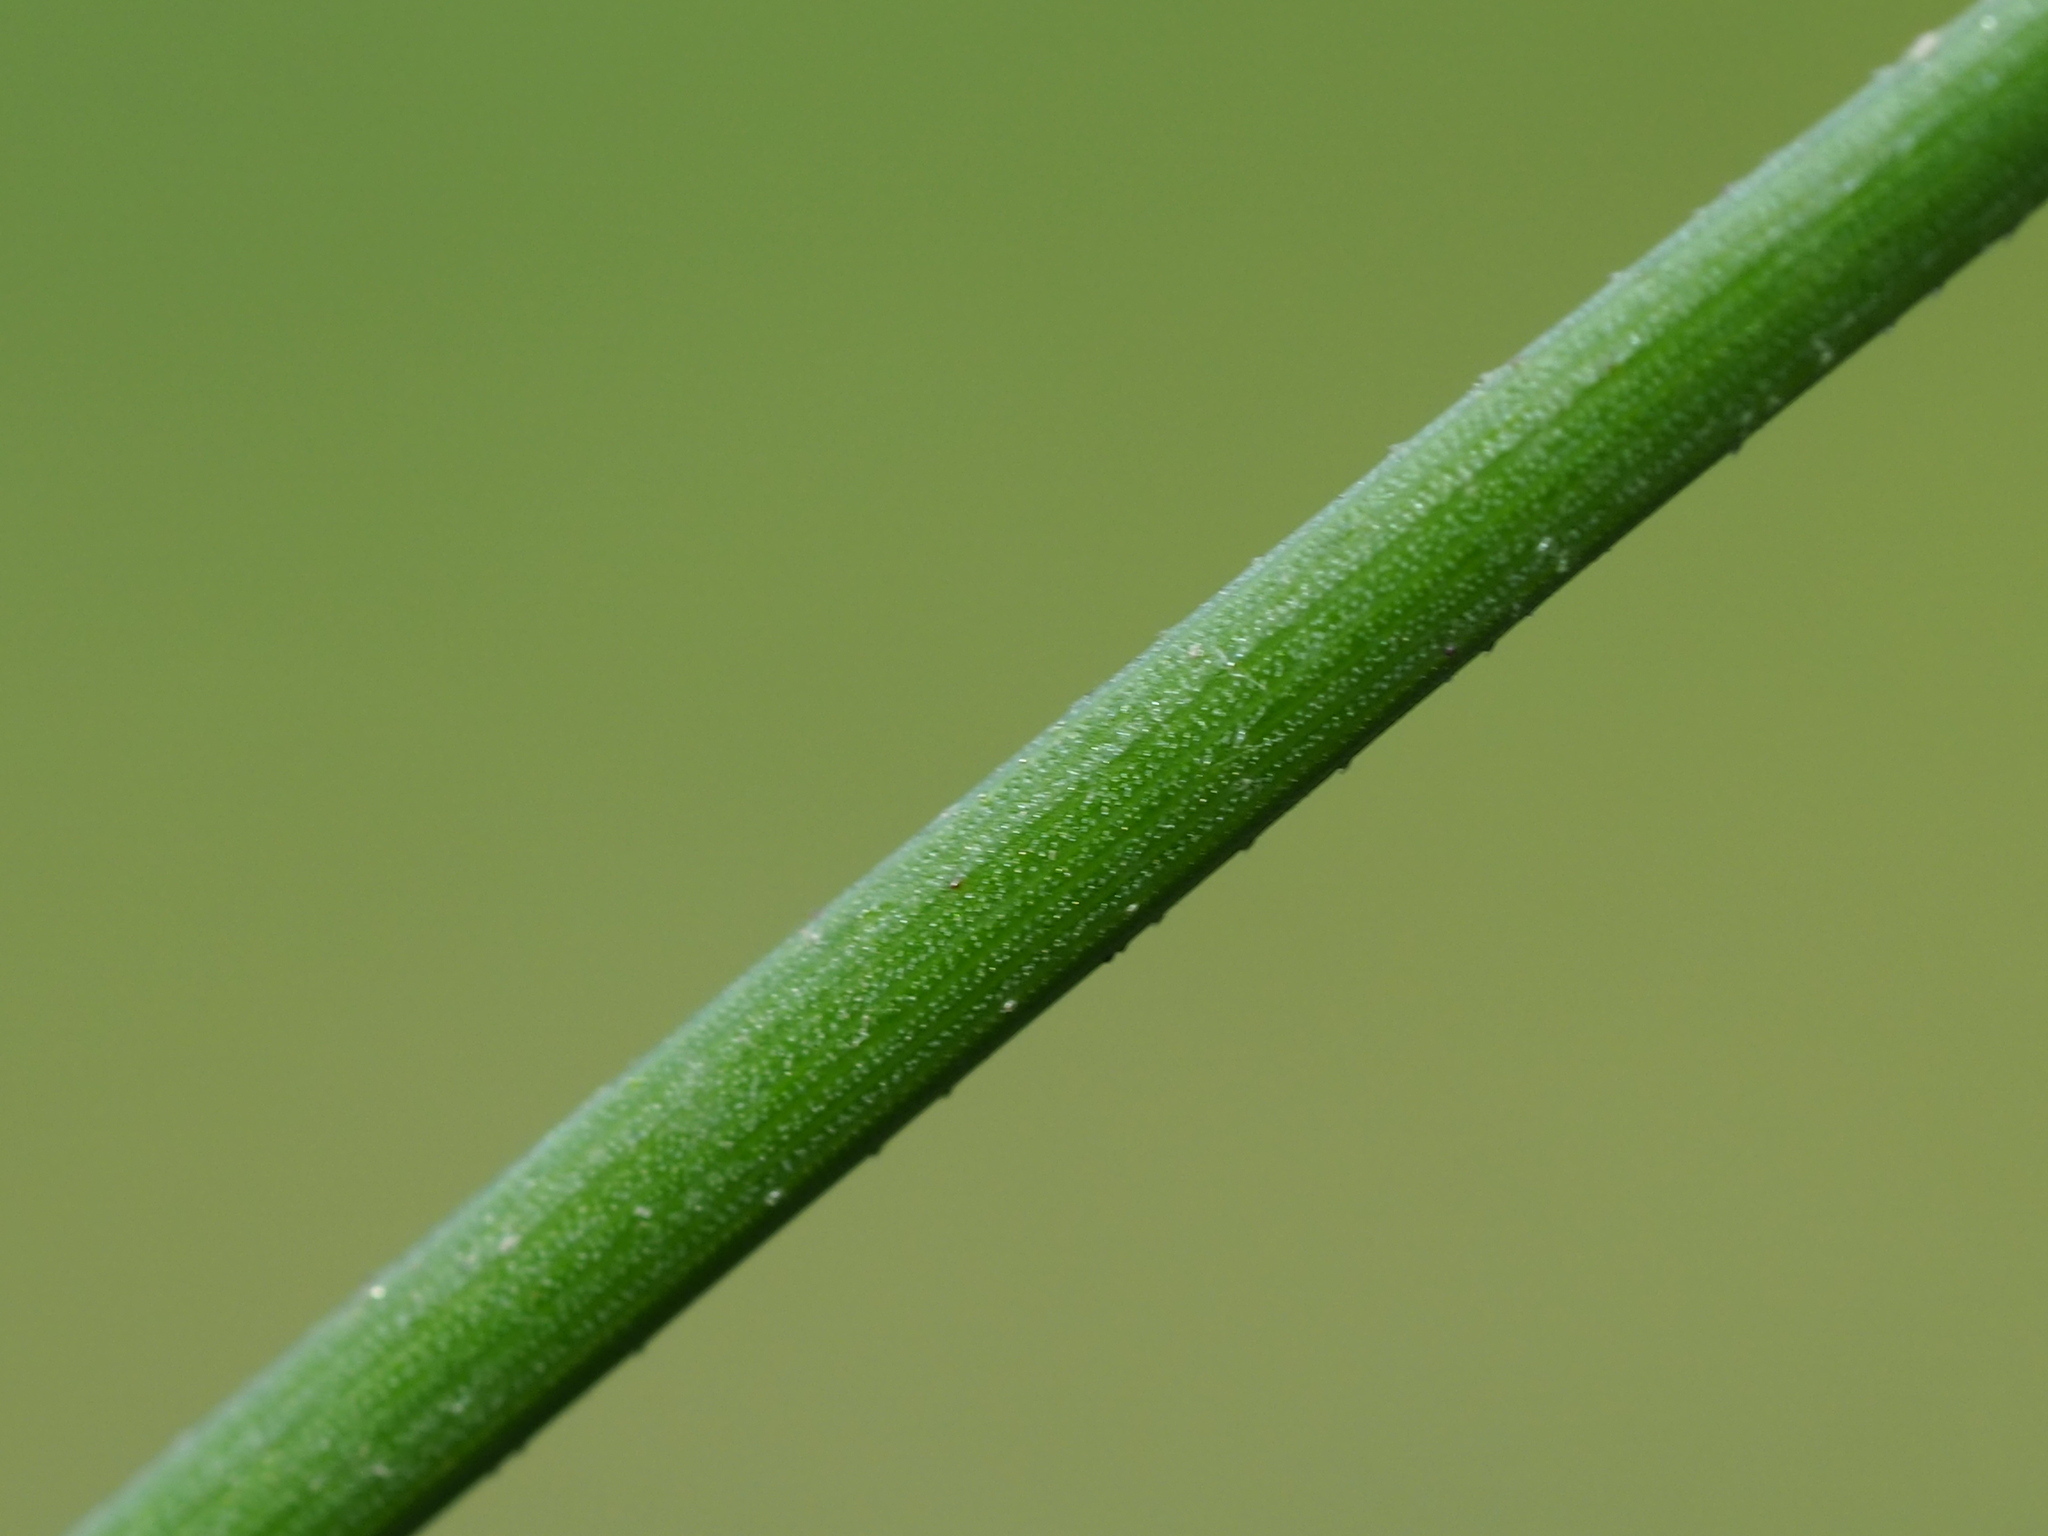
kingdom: Plantae
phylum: Tracheophyta
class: Liliopsida
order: Poales
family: Cyperaceae
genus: Cyperus
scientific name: Cyperus surinamensis
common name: Tropical flat sedge
